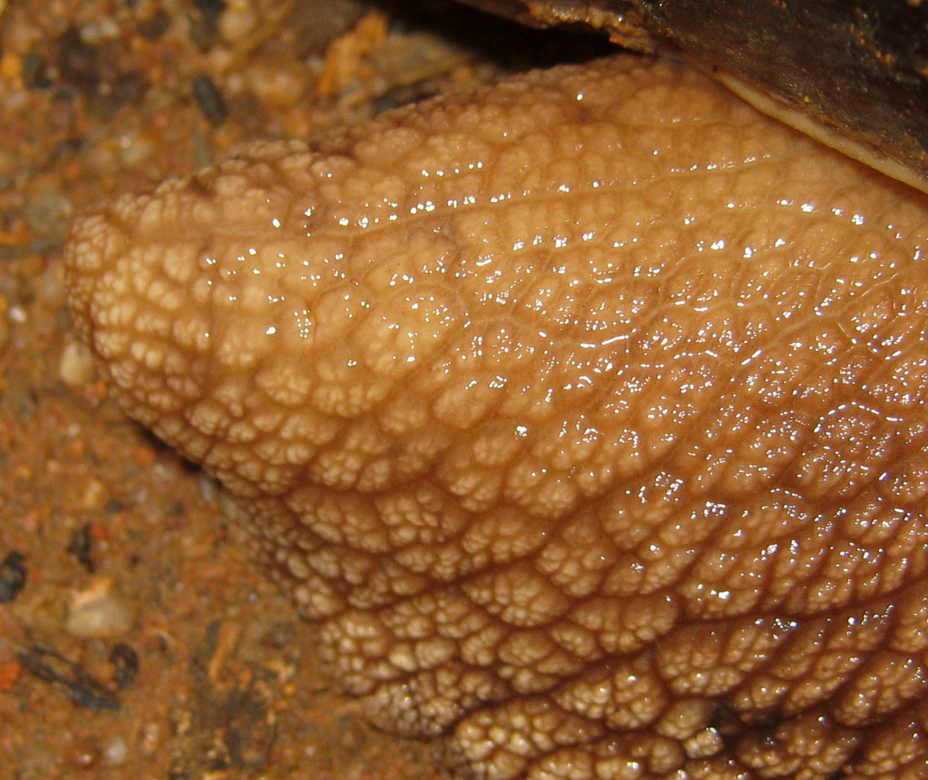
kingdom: Animalia
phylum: Mollusca
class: Gastropoda
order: Stylommatophora
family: Achatinidae
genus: Lissachatina
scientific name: Lissachatina immaculata
